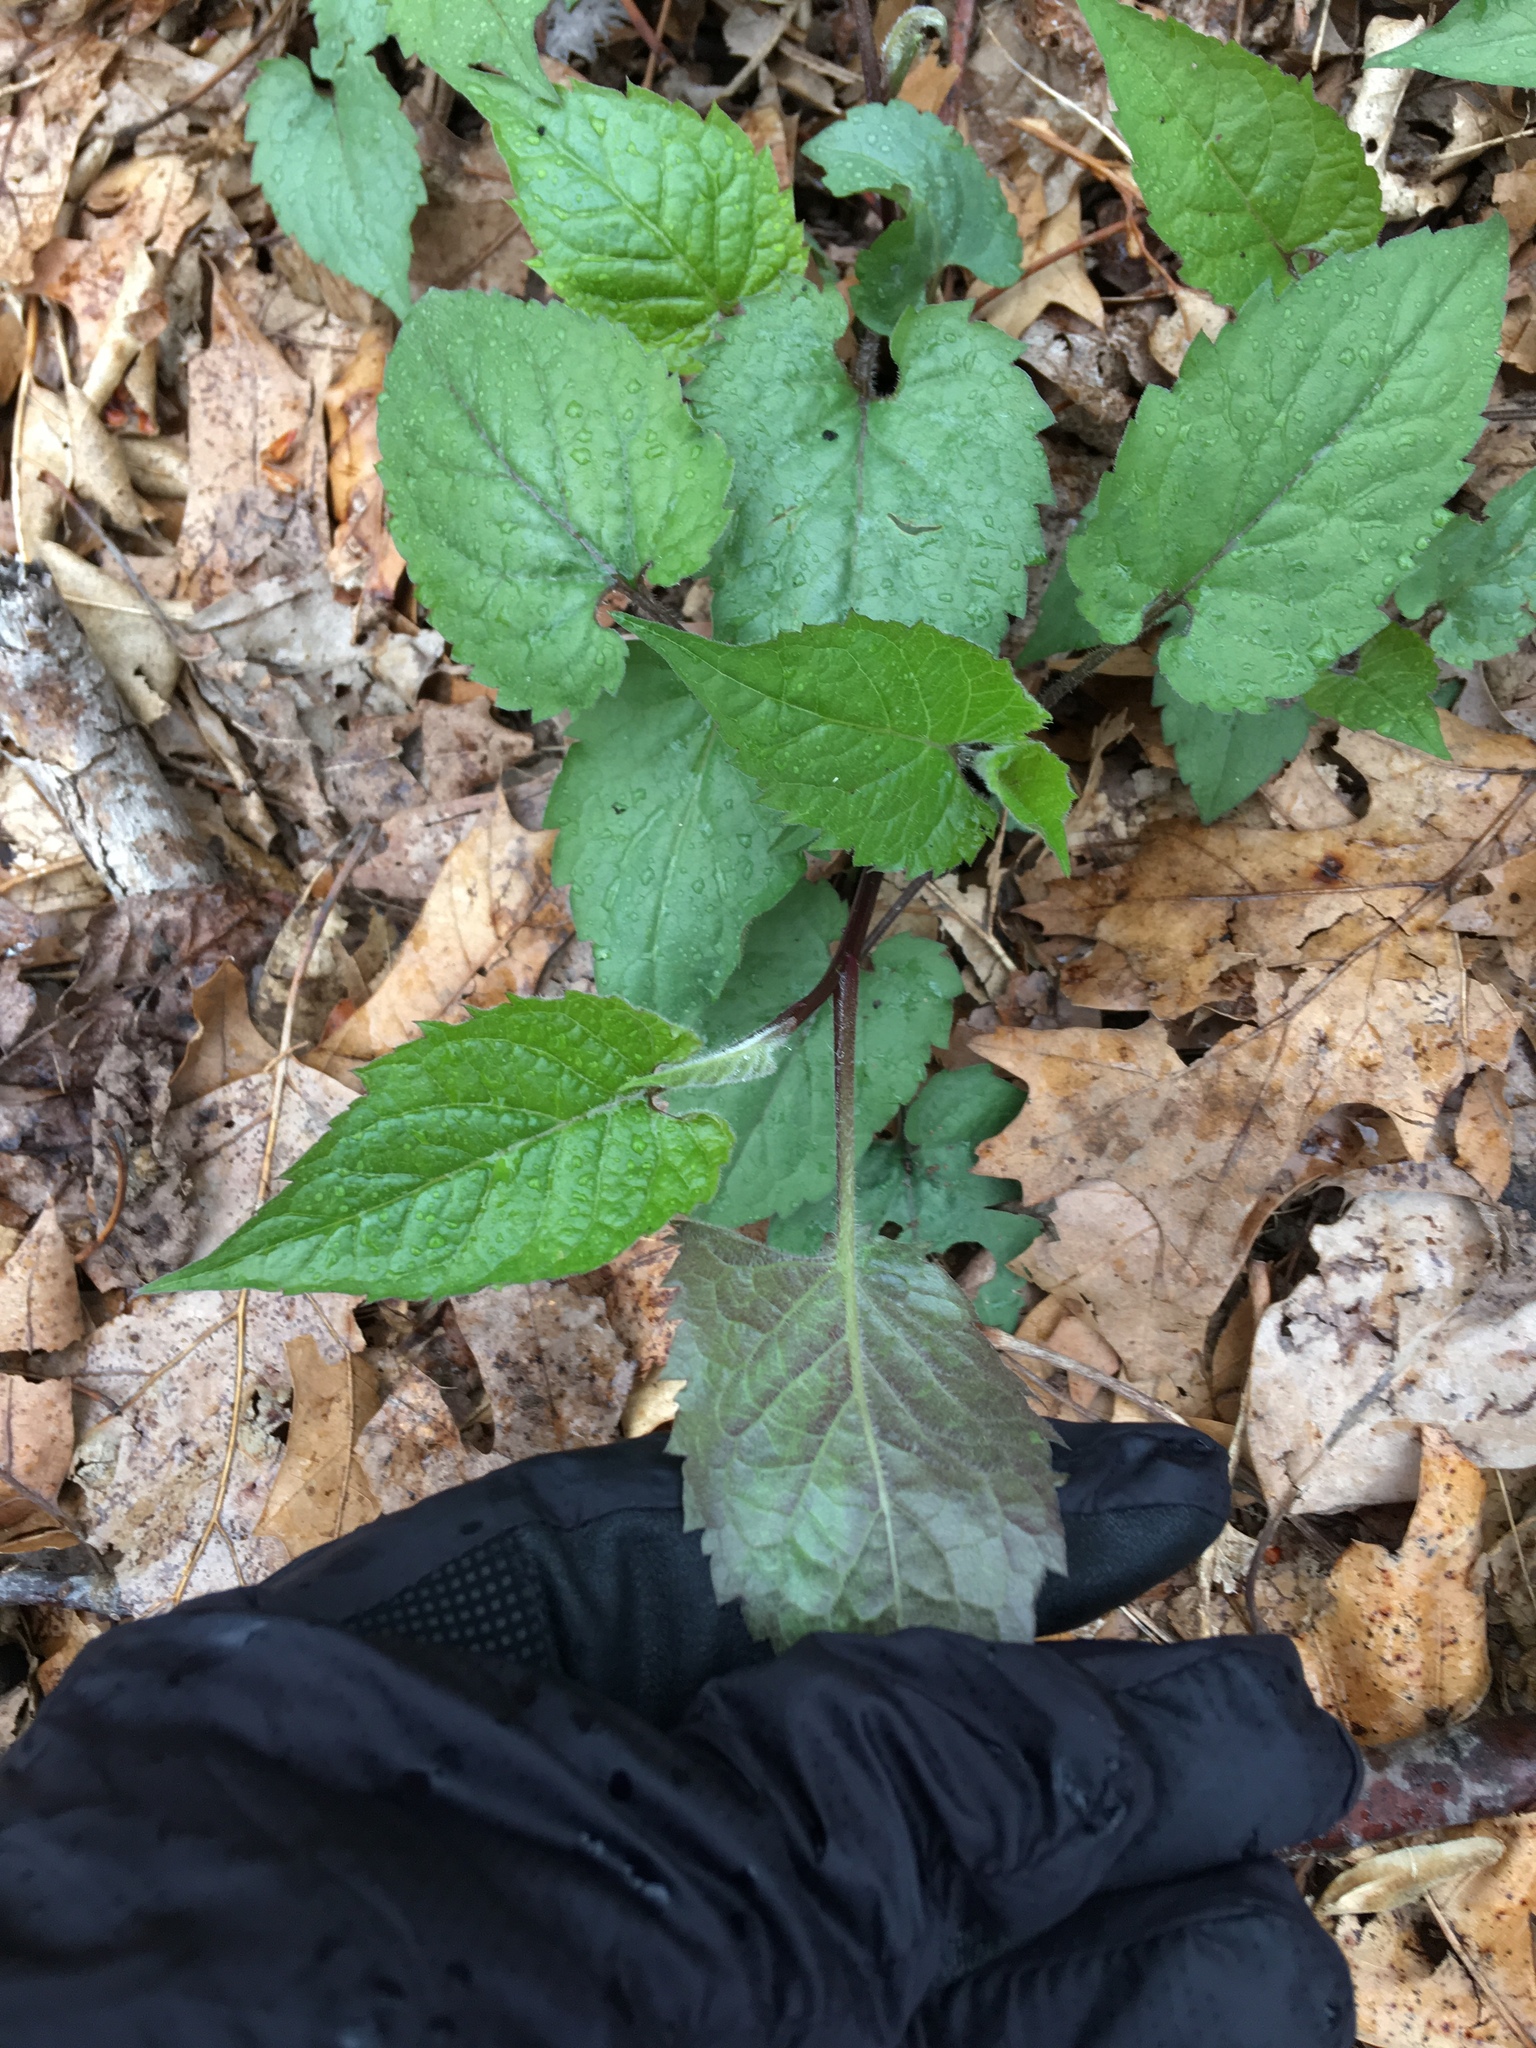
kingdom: Plantae
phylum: Tracheophyta
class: Magnoliopsida
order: Asterales
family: Asteraceae
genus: Eurybia
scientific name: Eurybia divaricata
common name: White wood aster
